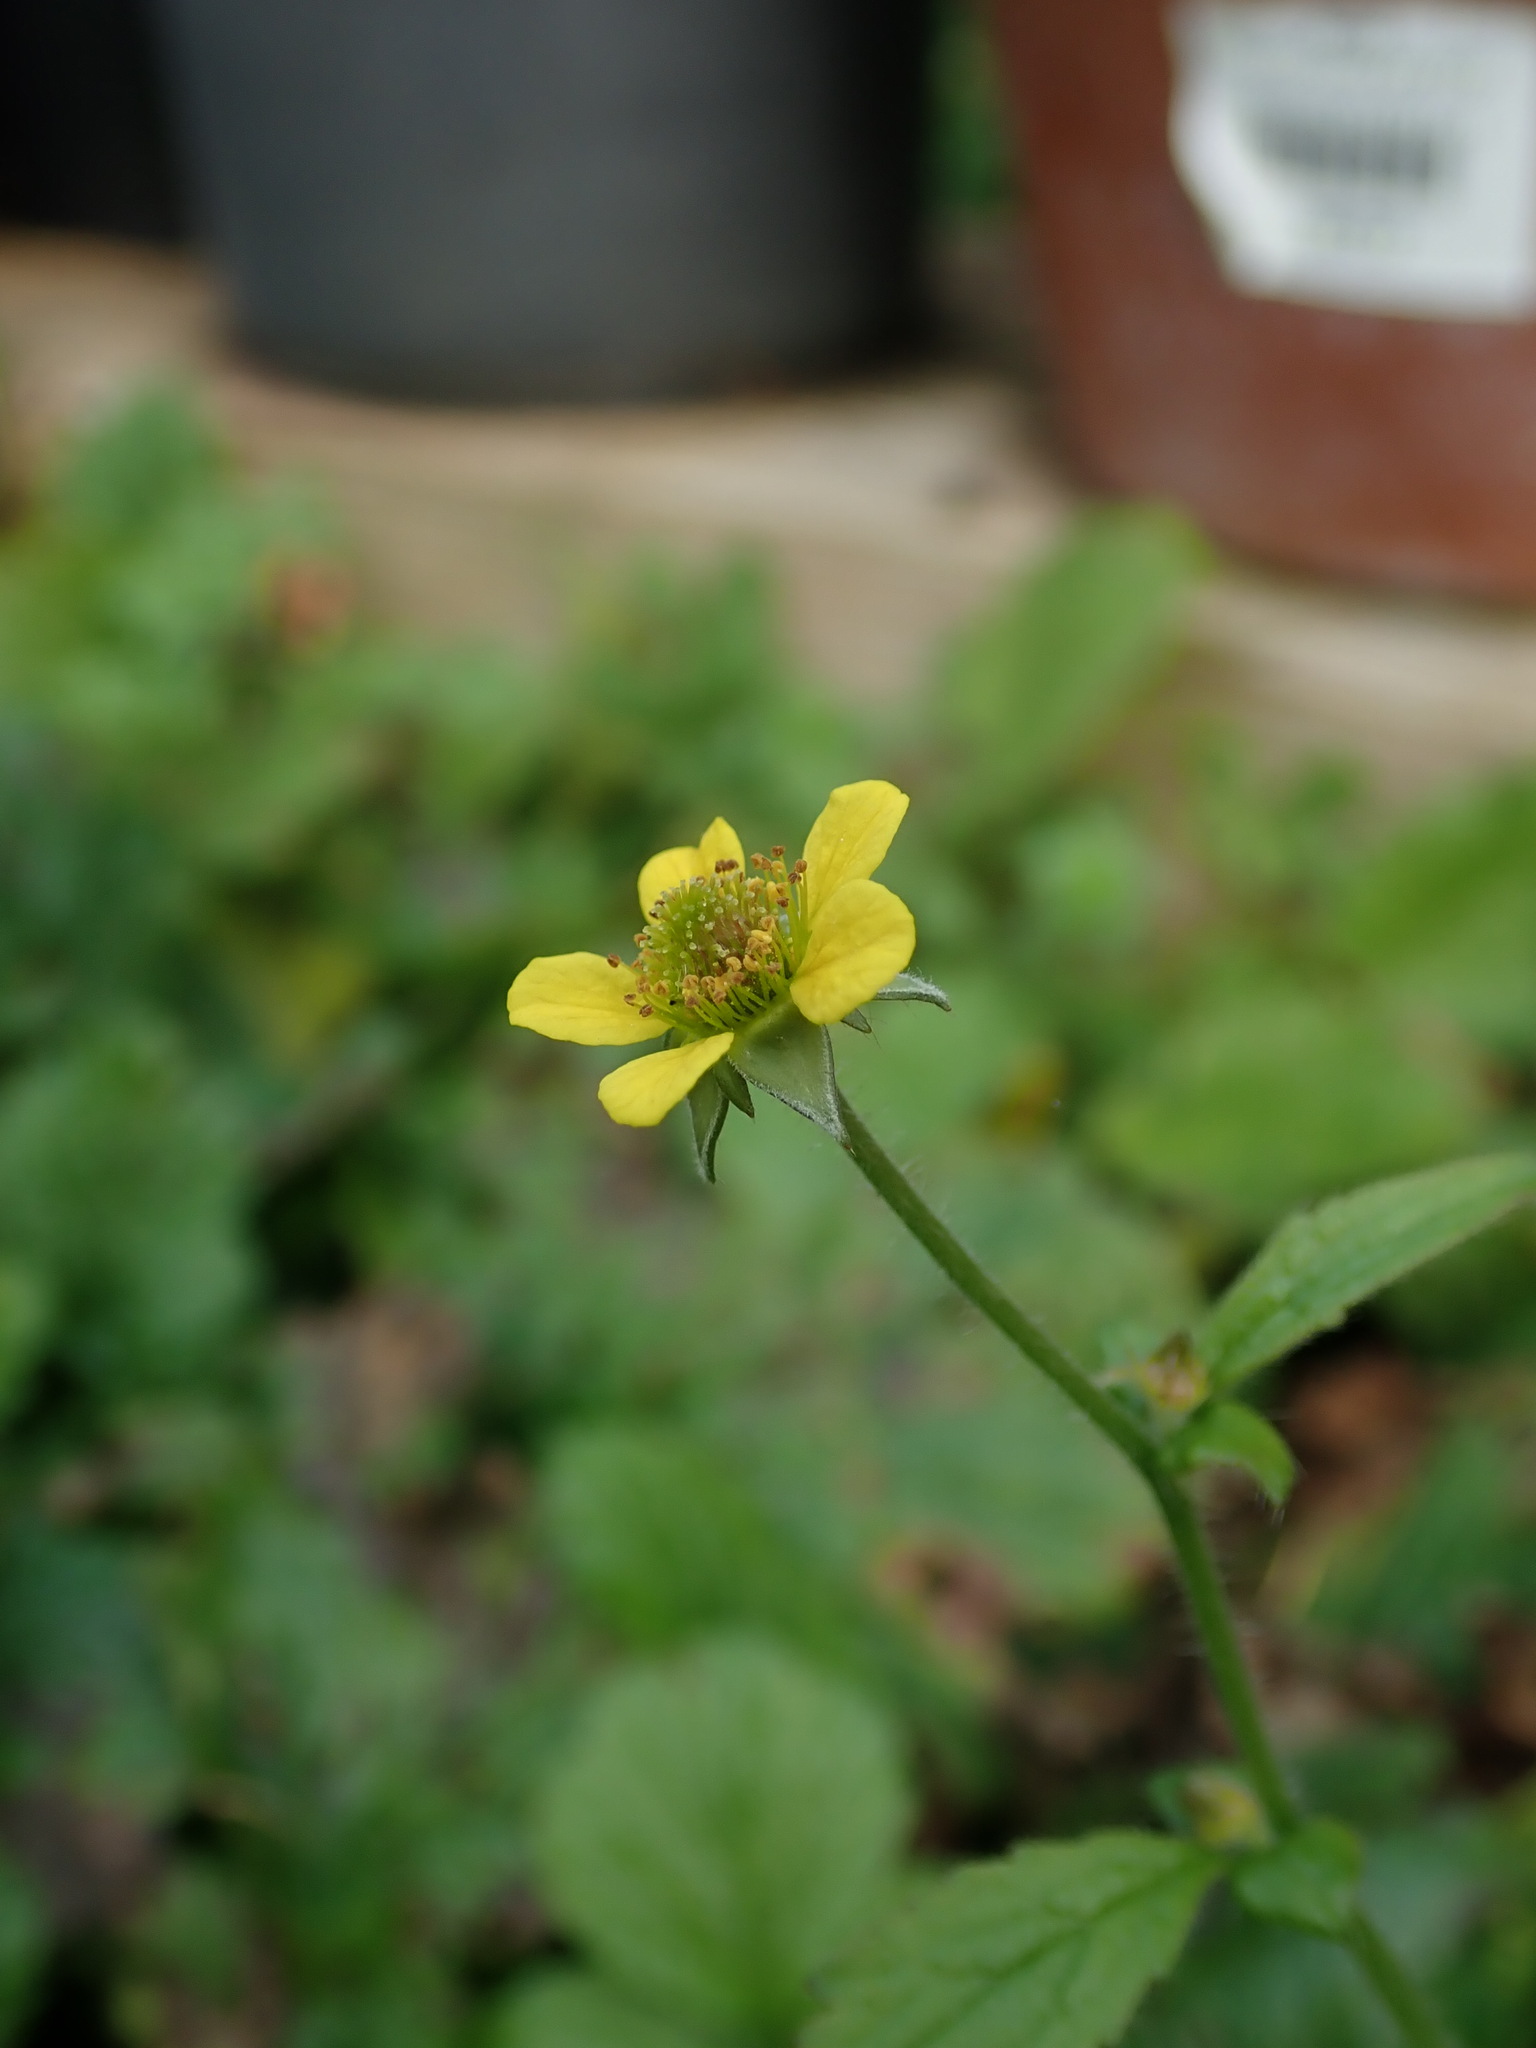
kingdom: Plantae
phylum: Tracheophyta
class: Magnoliopsida
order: Rosales
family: Rosaceae
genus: Geum
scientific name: Geum urbanum
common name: Wood avens
